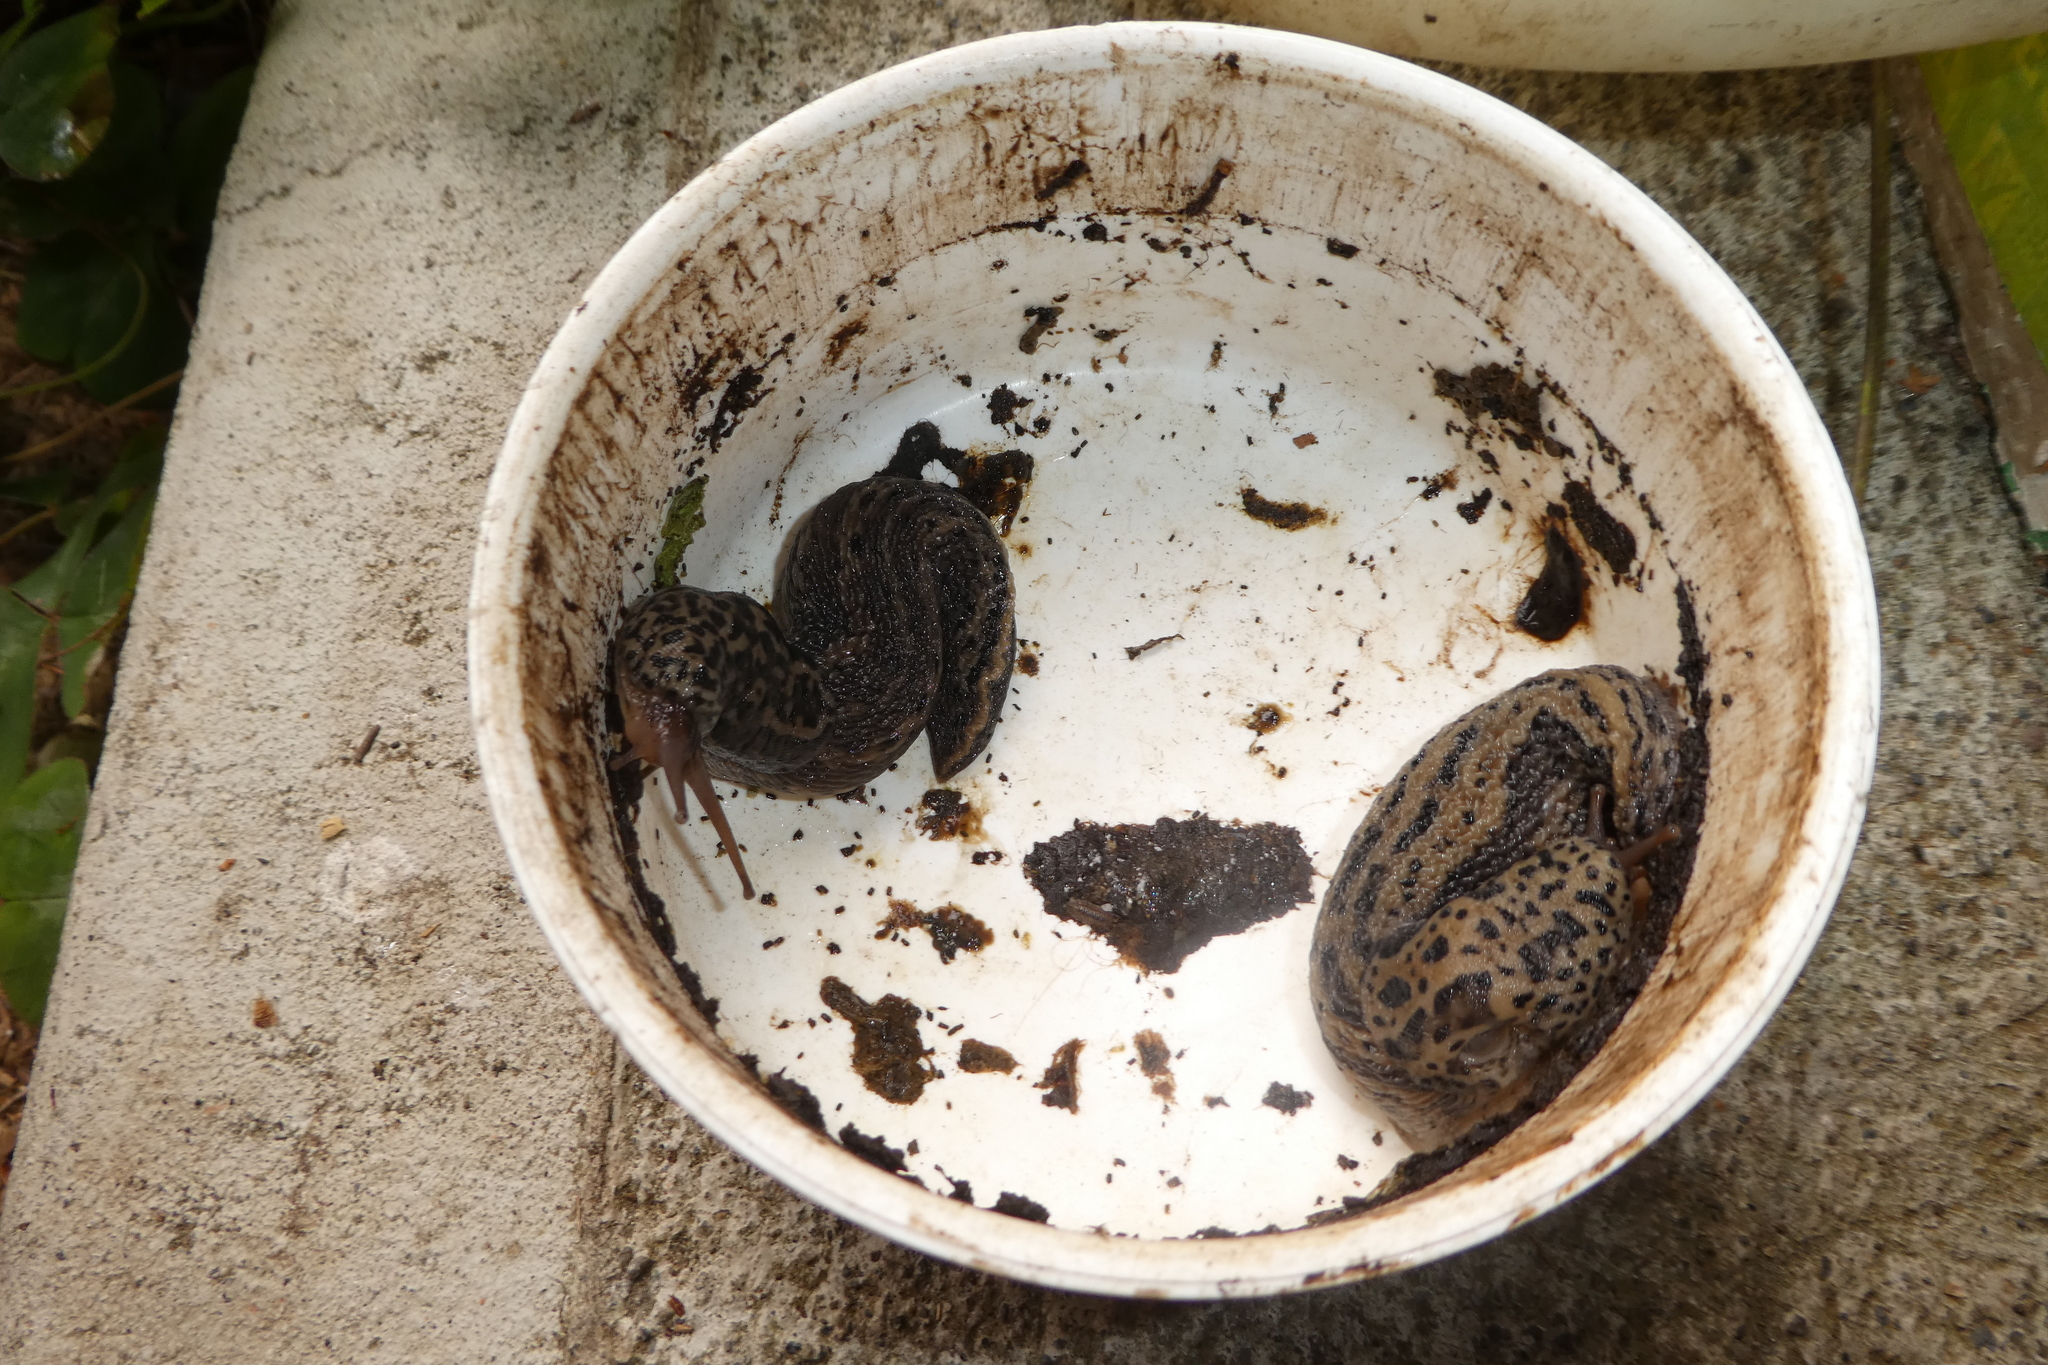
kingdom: Animalia
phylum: Mollusca
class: Gastropoda
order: Stylommatophora
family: Limacidae
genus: Limax
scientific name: Limax maximus
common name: Great grey slug
